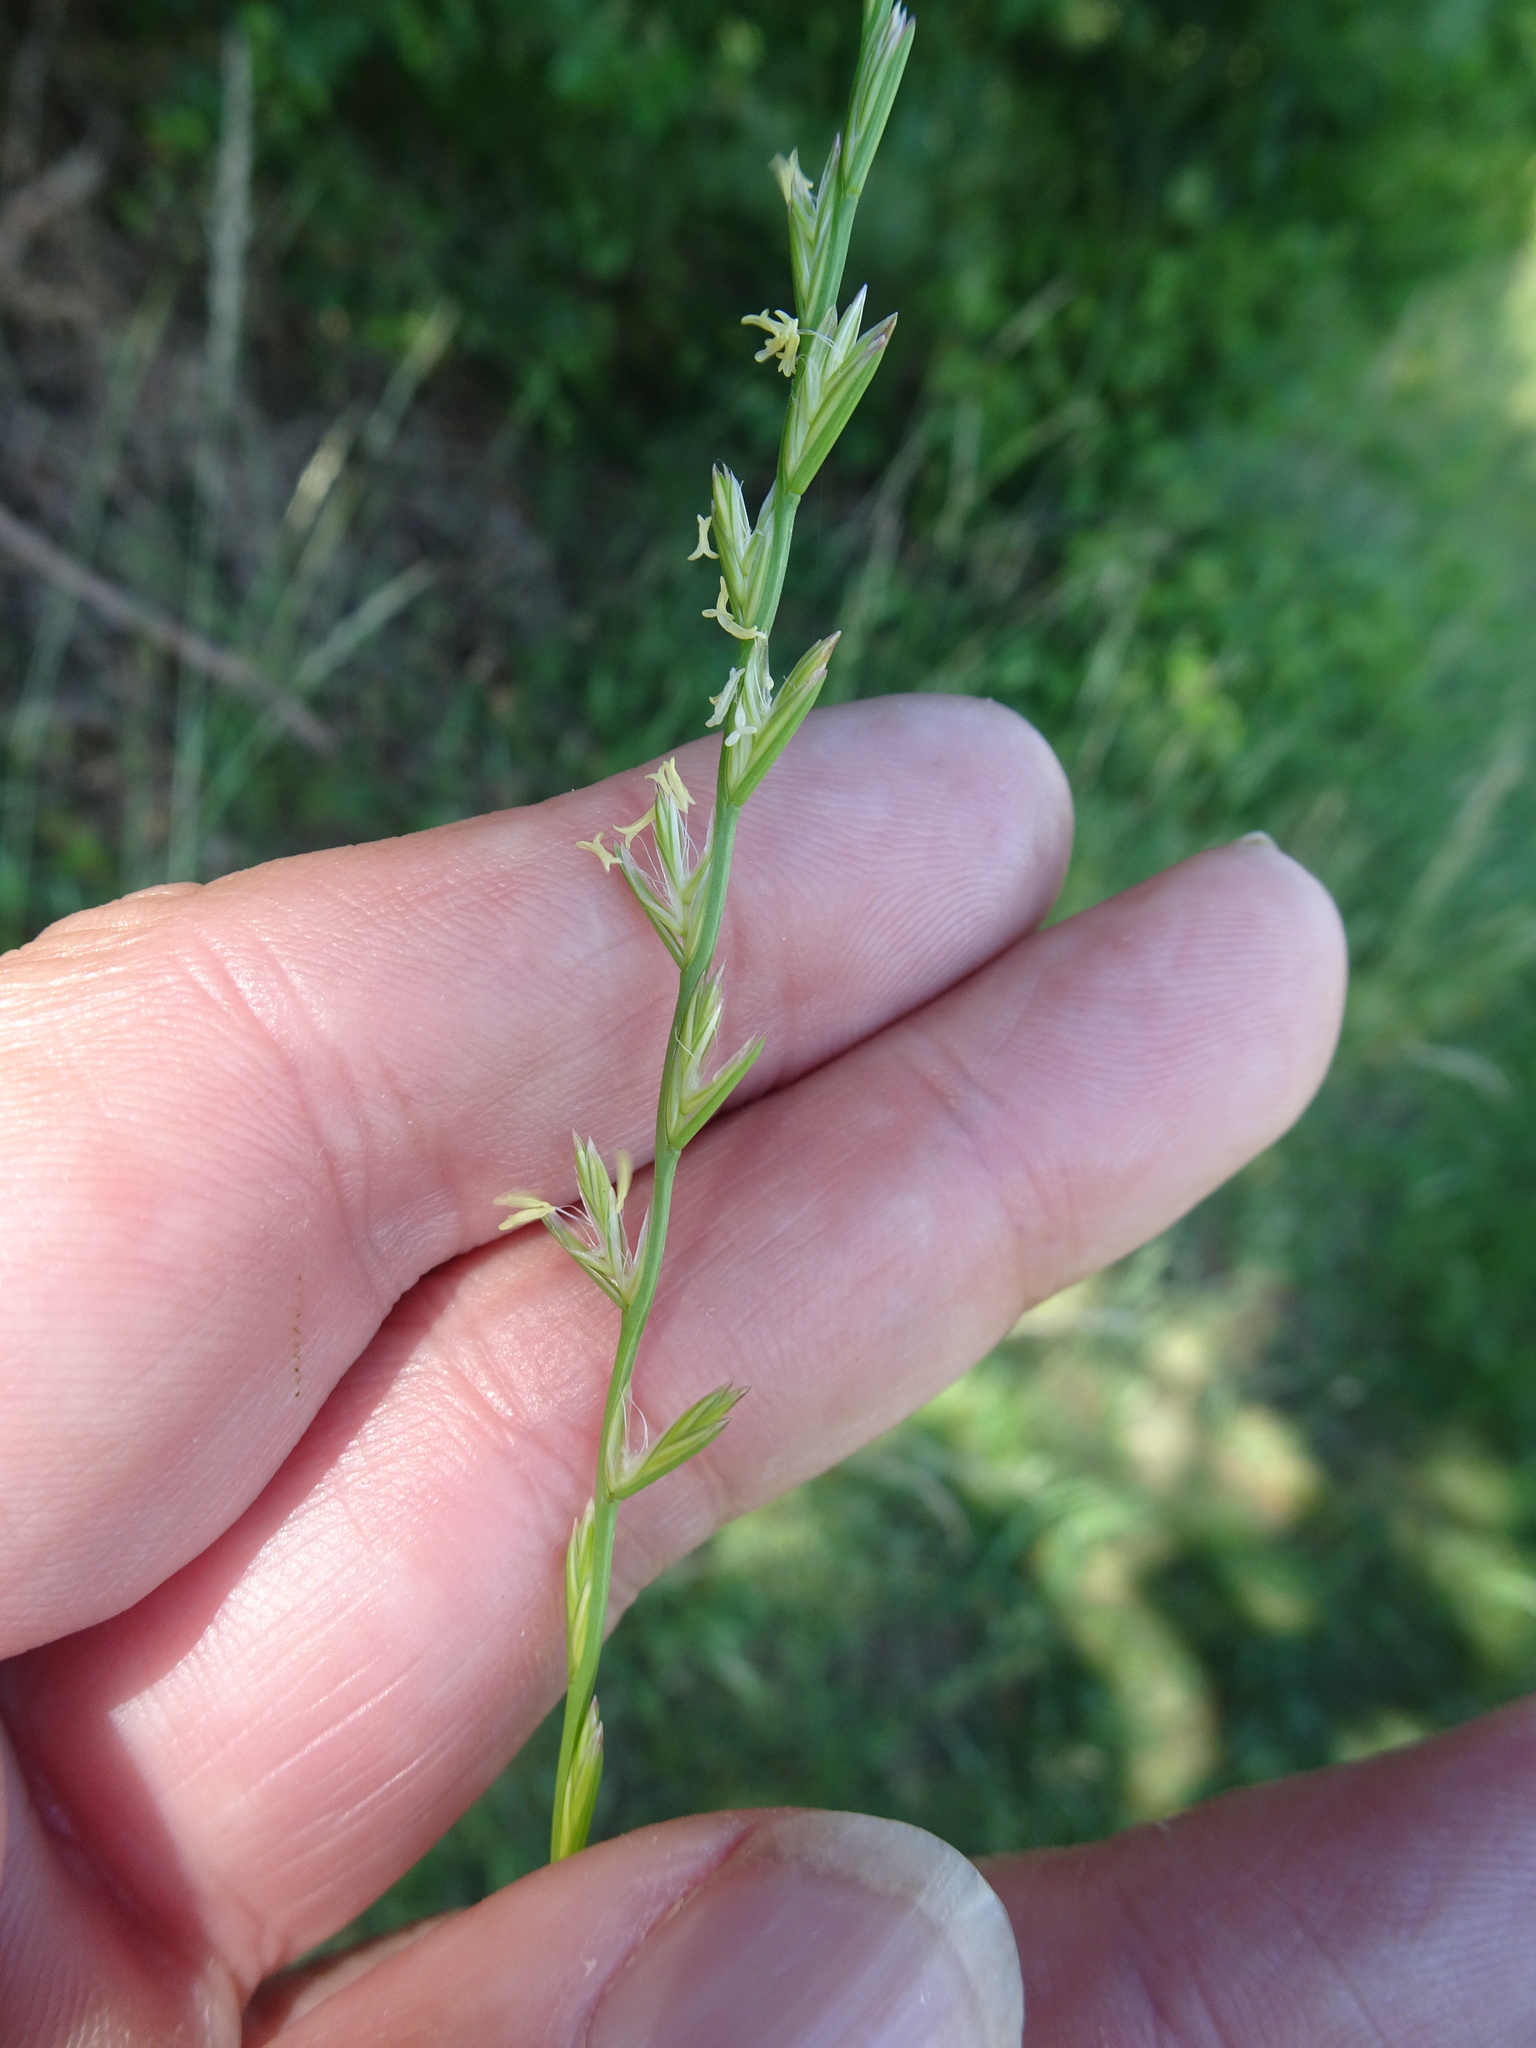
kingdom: Plantae
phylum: Tracheophyta
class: Liliopsida
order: Poales
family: Poaceae
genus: Lolium
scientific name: Lolium perenne
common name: Perennial ryegrass
